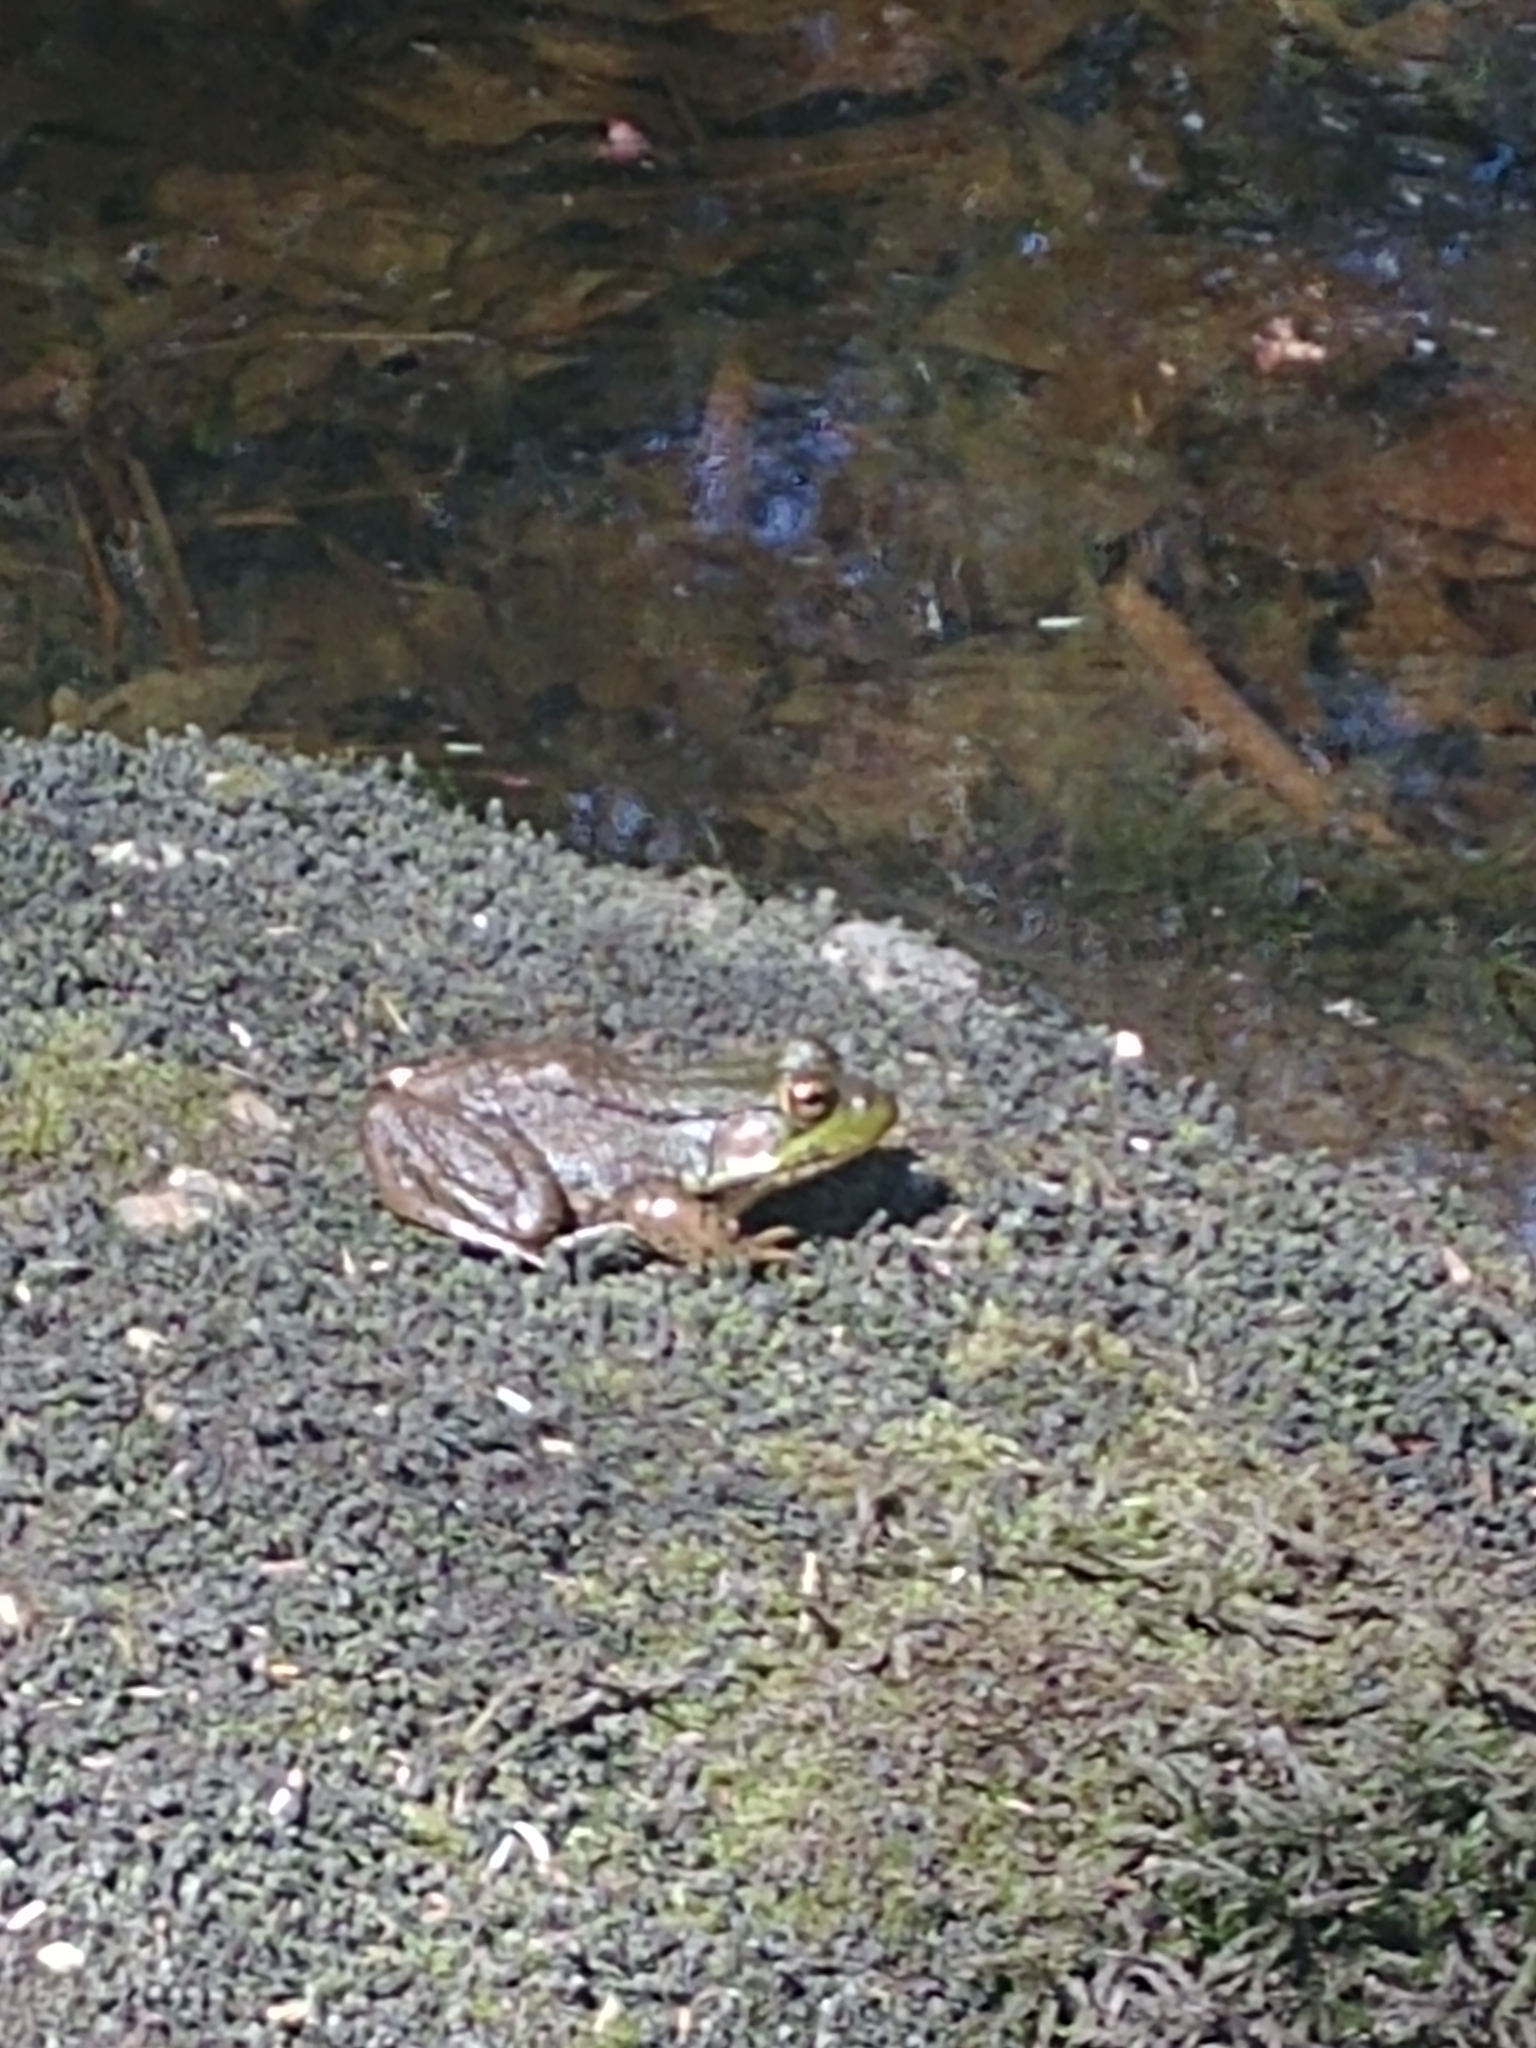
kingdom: Animalia
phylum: Chordata
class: Amphibia
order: Anura
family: Ranidae
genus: Lithobates
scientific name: Lithobates clamitans
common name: Green frog
